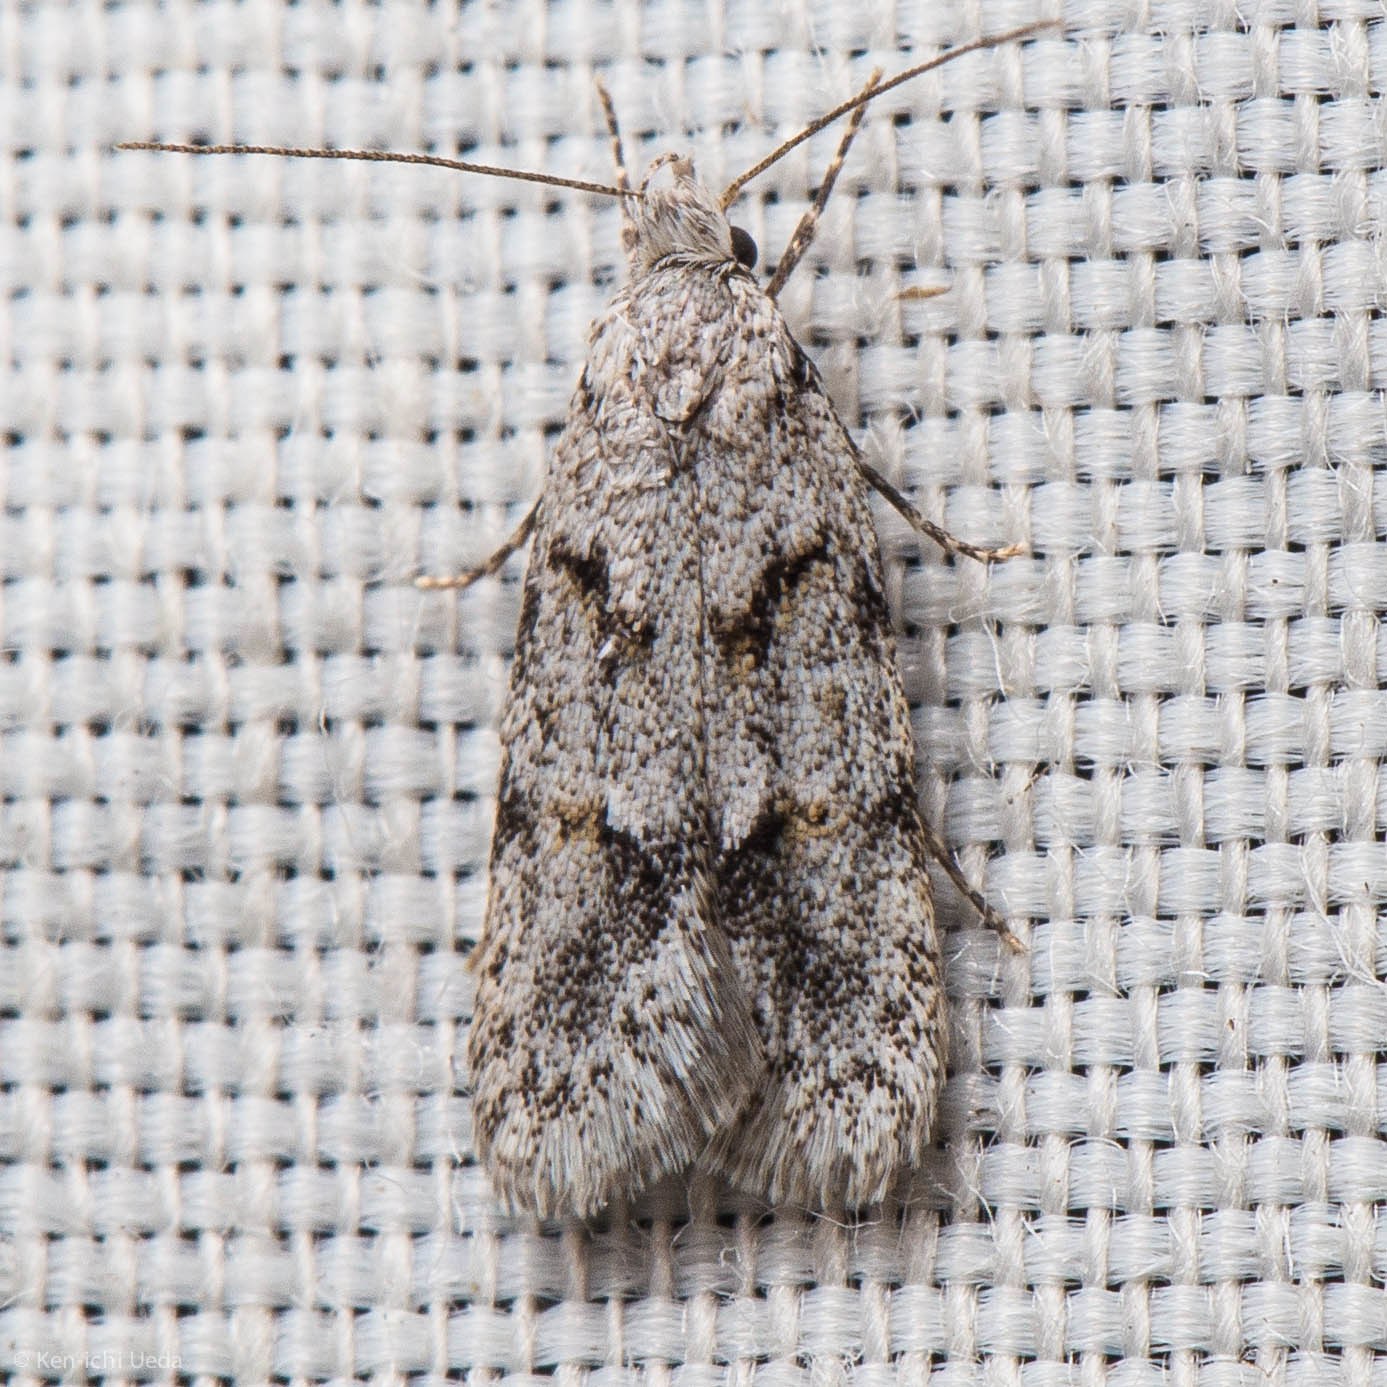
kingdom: Animalia
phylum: Arthropoda
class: Insecta
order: Lepidoptera
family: Autostichidae
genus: Symmoca
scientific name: Symmoca signatella
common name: Dockland obscure
